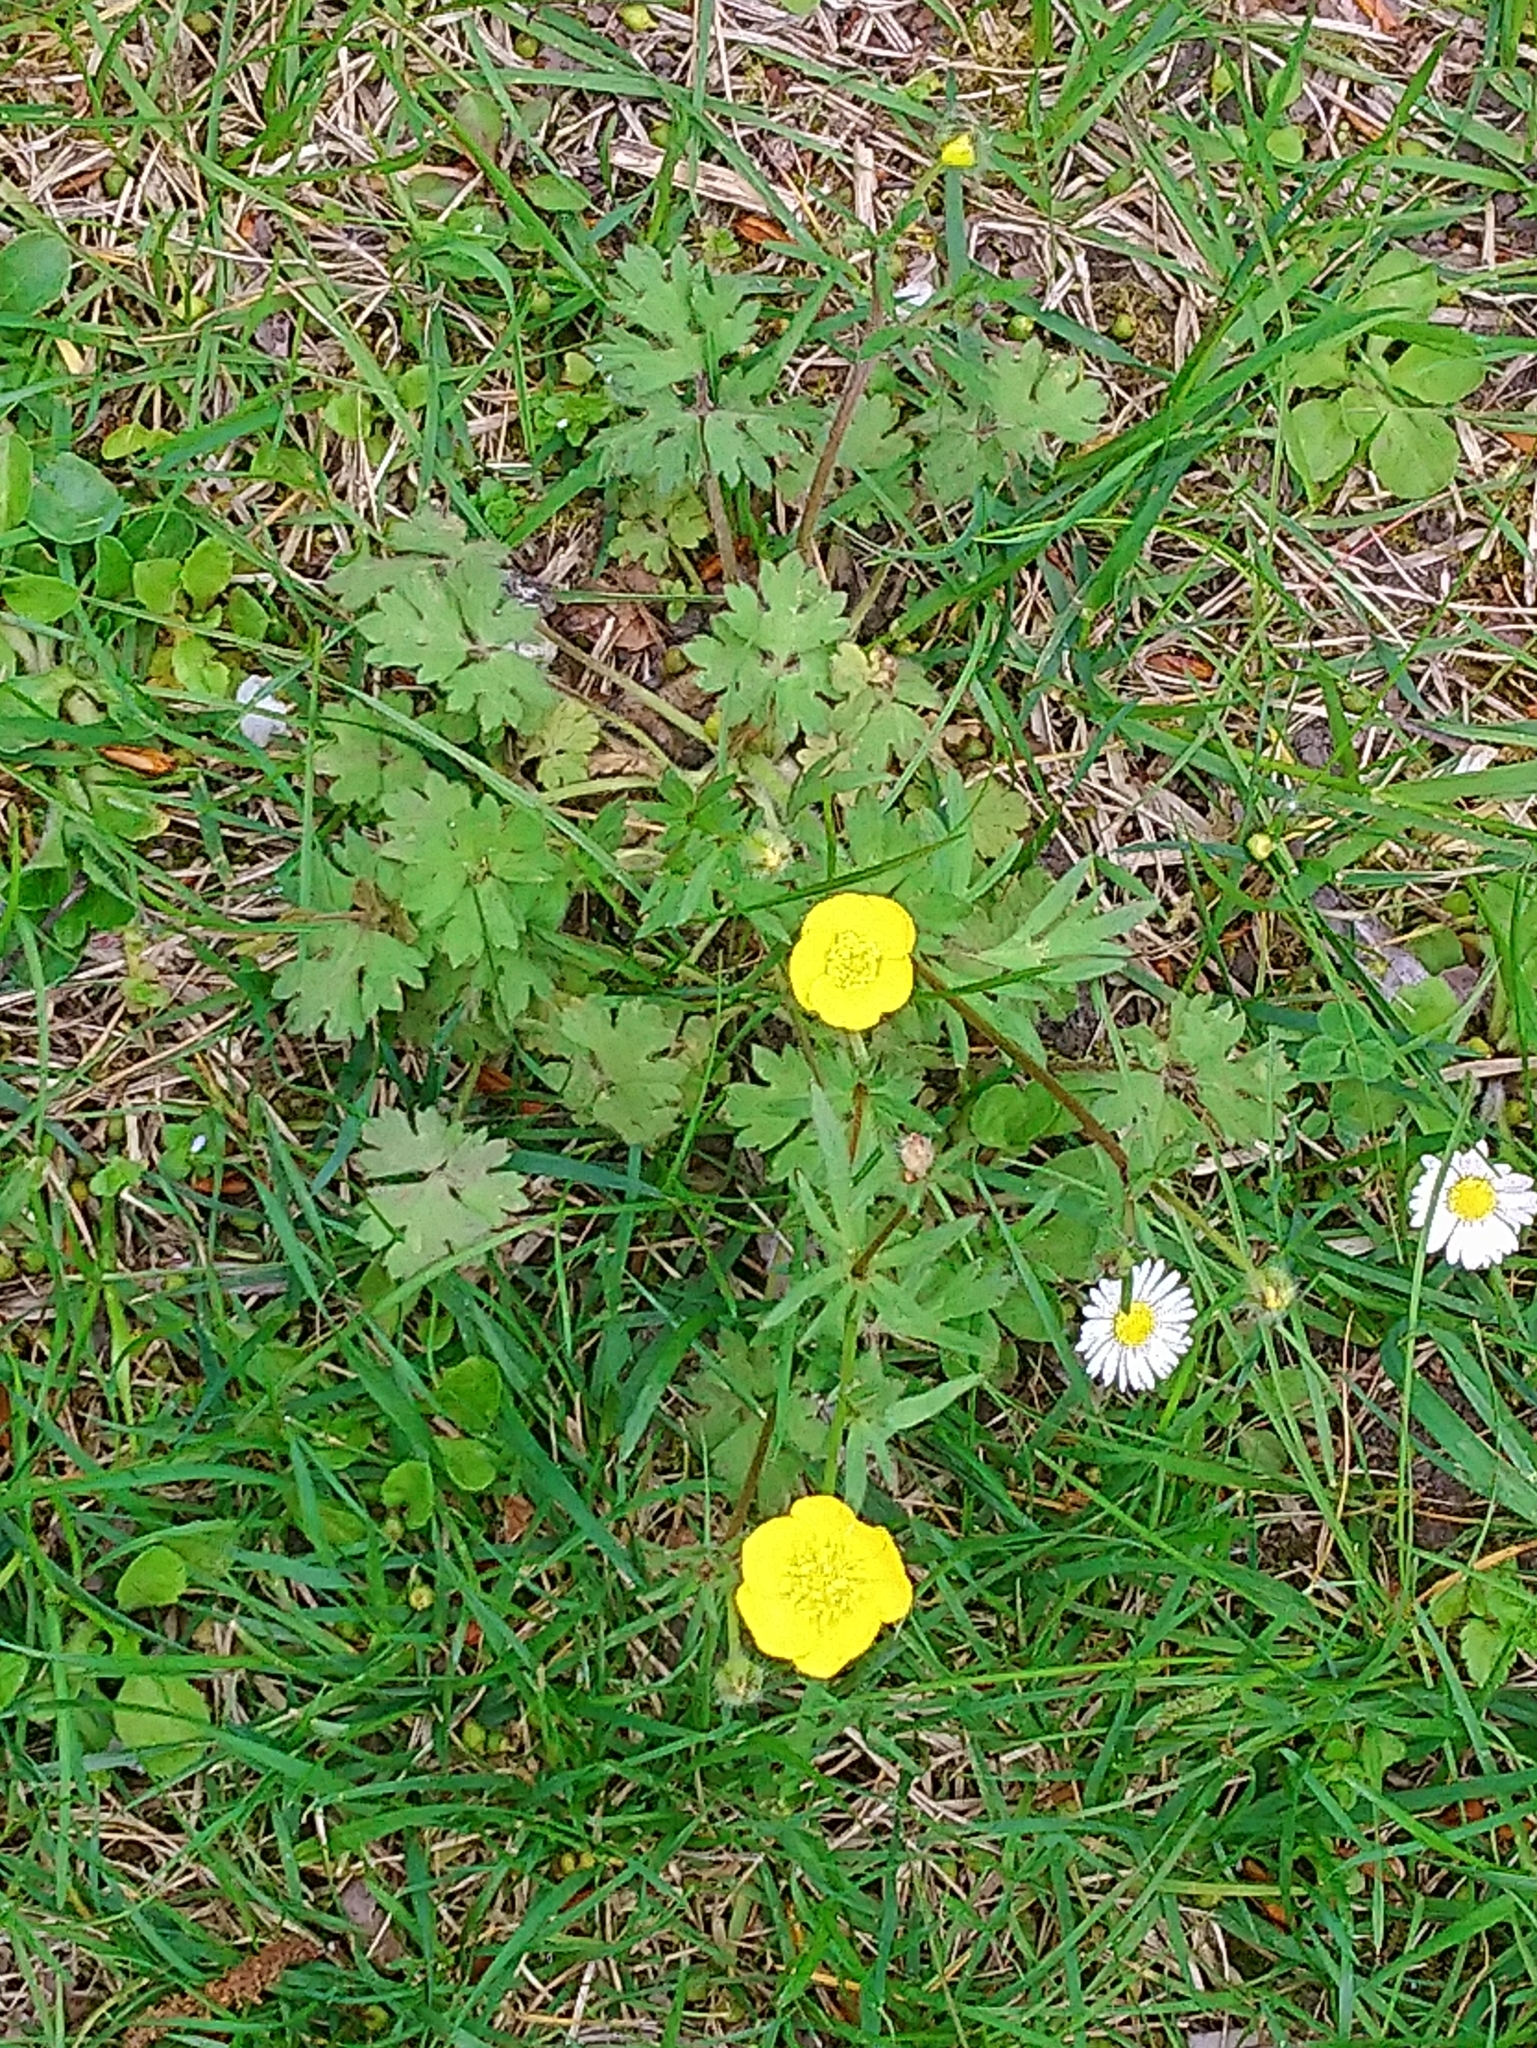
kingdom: Plantae
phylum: Tracheophyta
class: Magnoliopsida
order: Ranunculales
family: Ranunculaceae
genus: Ranunculus
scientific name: Ranunculus bulbosus
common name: Bulbous buttercup
